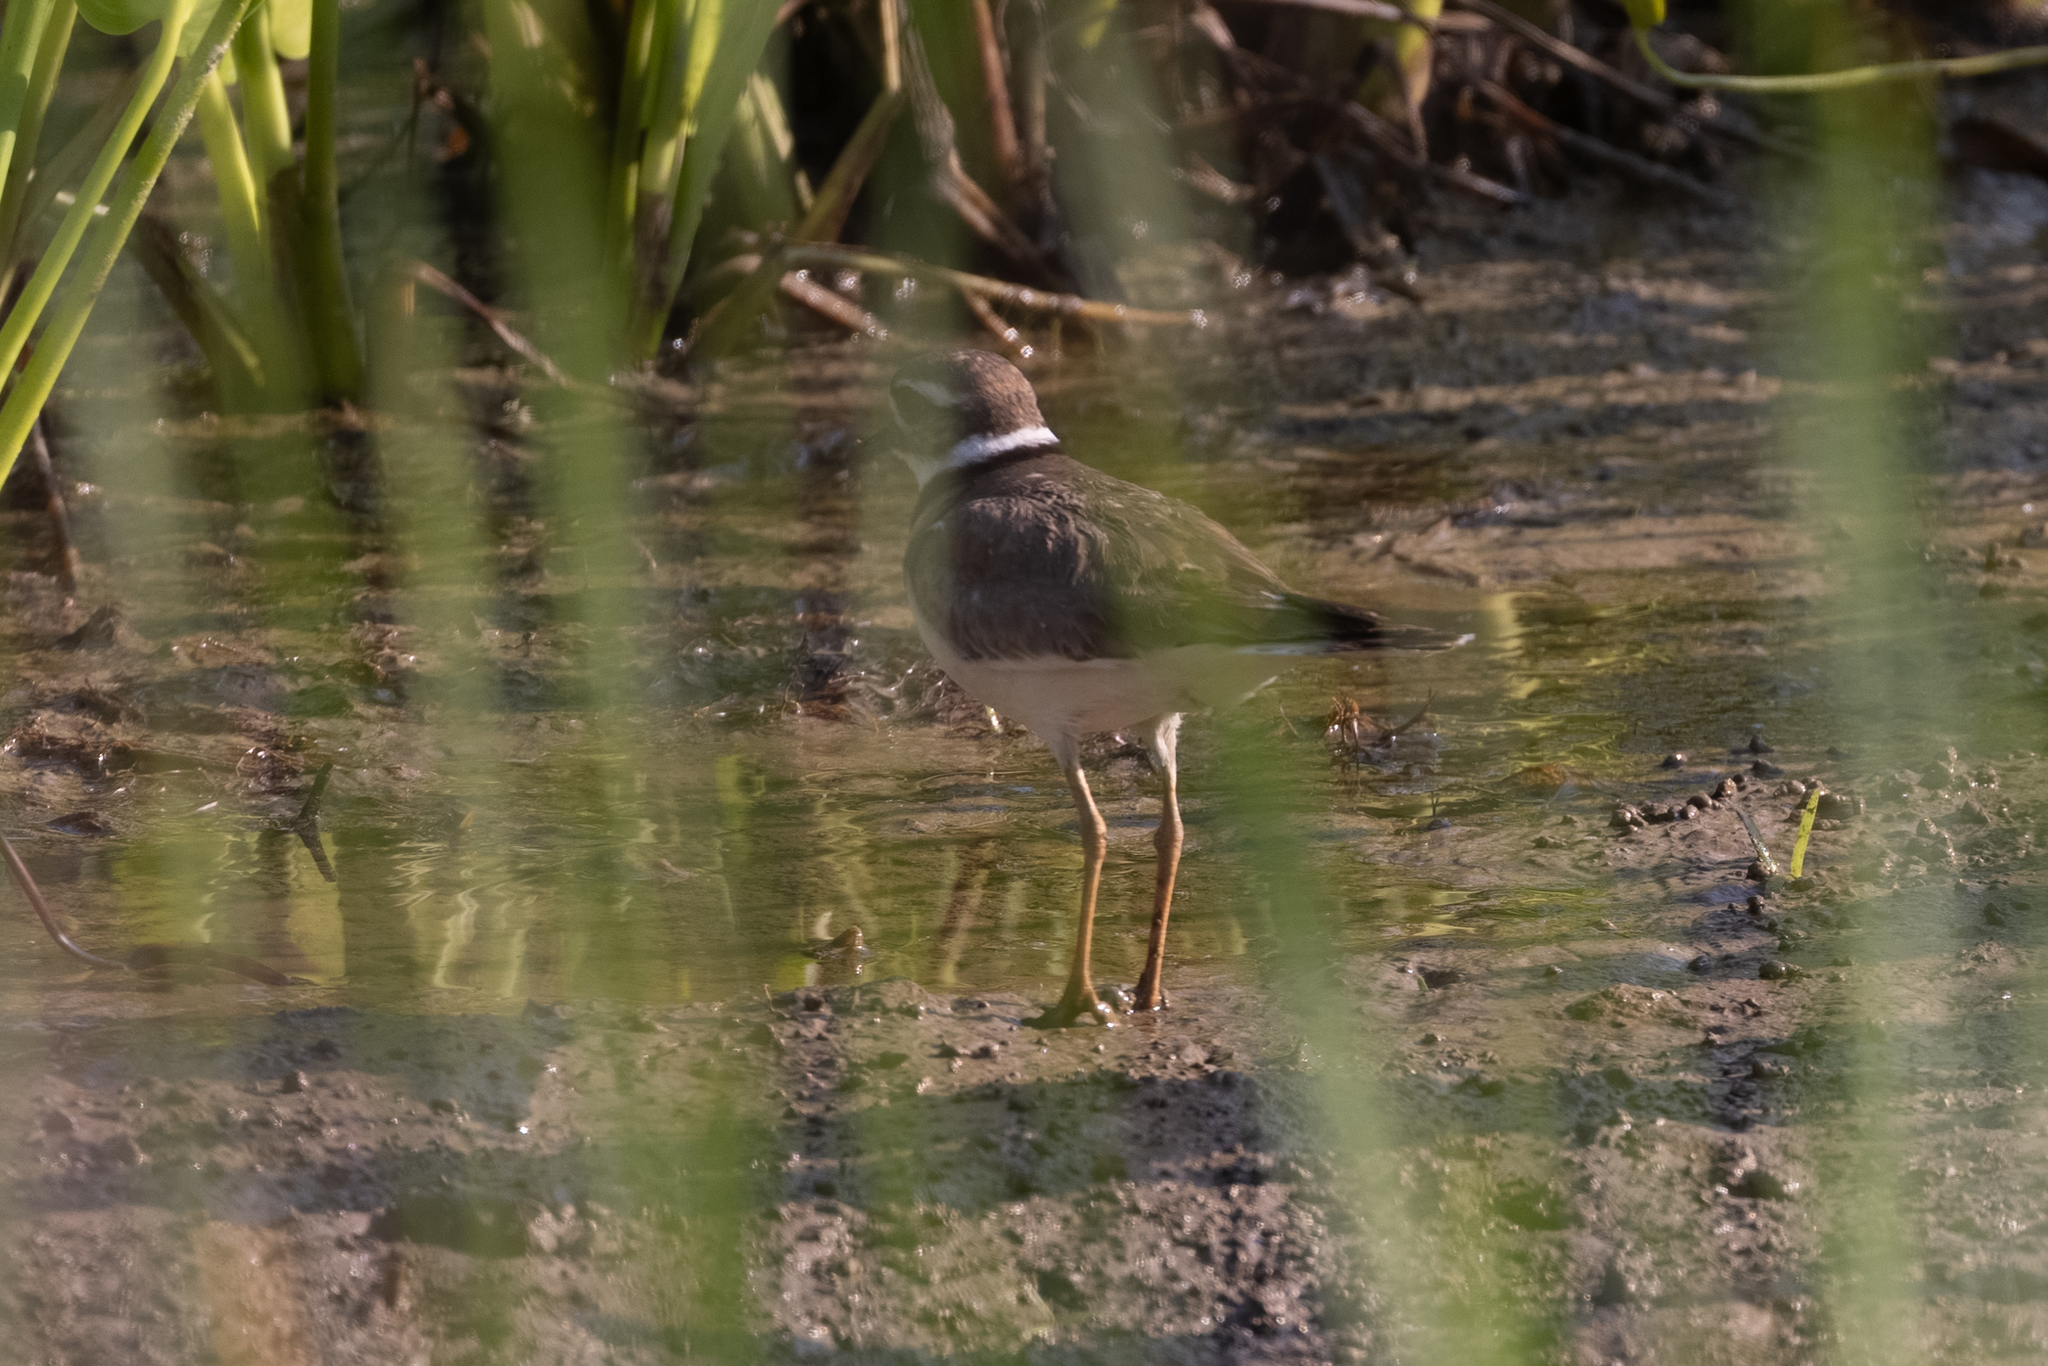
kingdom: Animalia
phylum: Chordata
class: Aves
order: Charadriiformes
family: Charadriidae
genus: Charadrius
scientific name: Charadrius vociferus
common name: Killdeer
